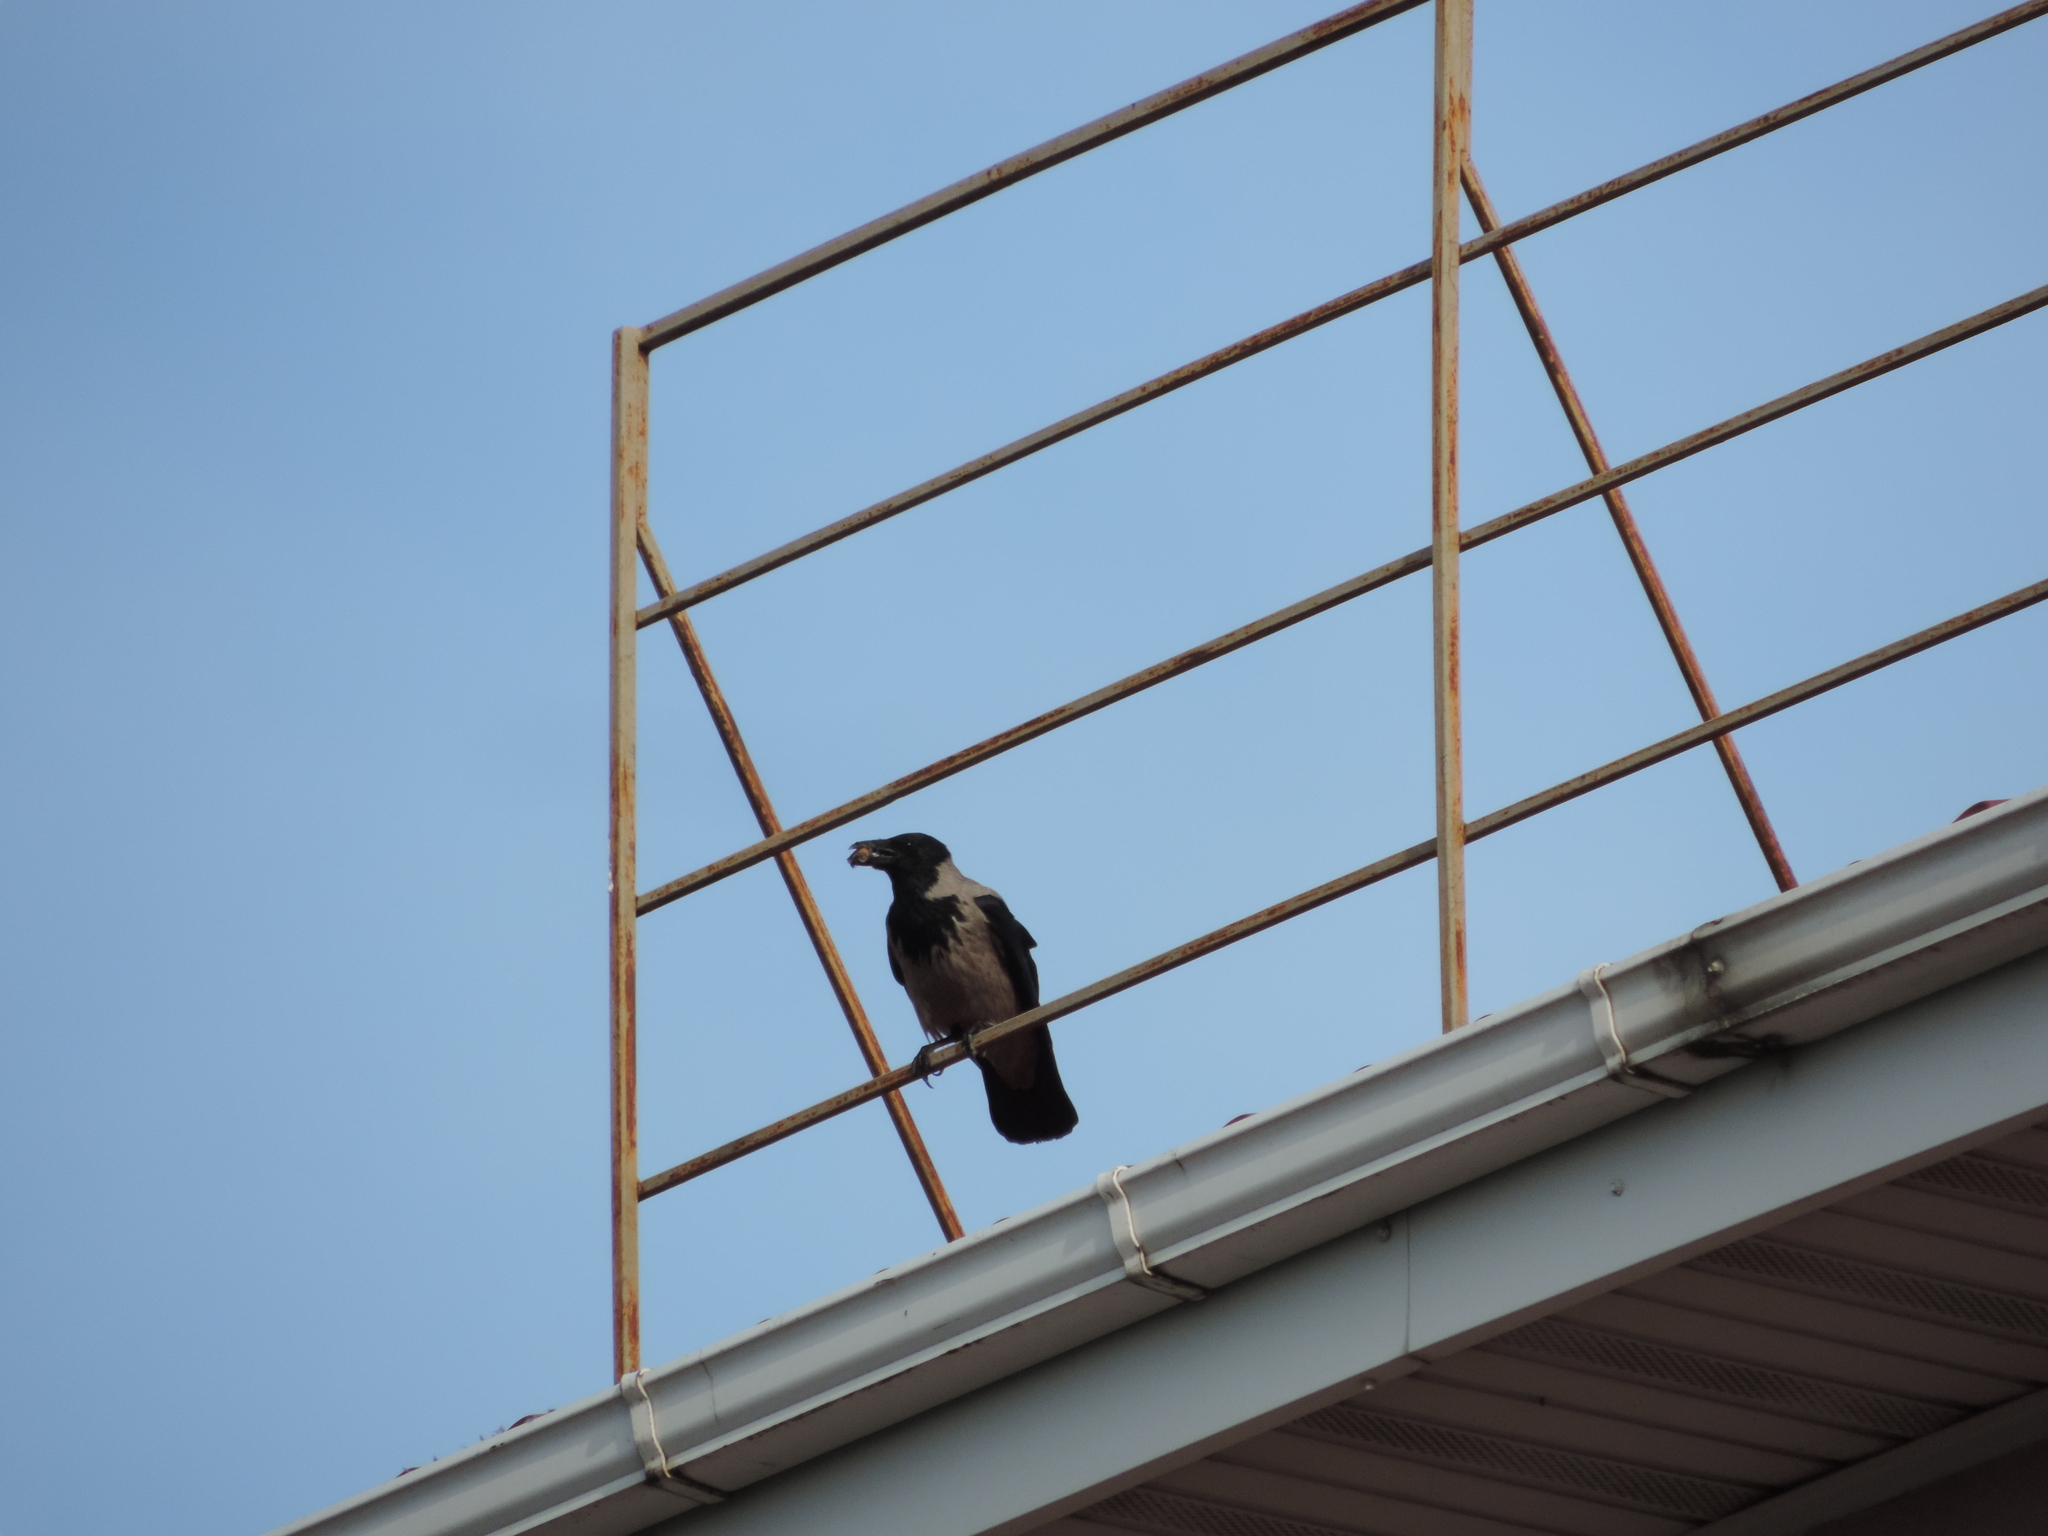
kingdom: Animalia
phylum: Chordata
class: Aves
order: Passeriformes
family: Corvidae
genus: Corvus
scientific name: Corvus cornix
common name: Hooded crow
